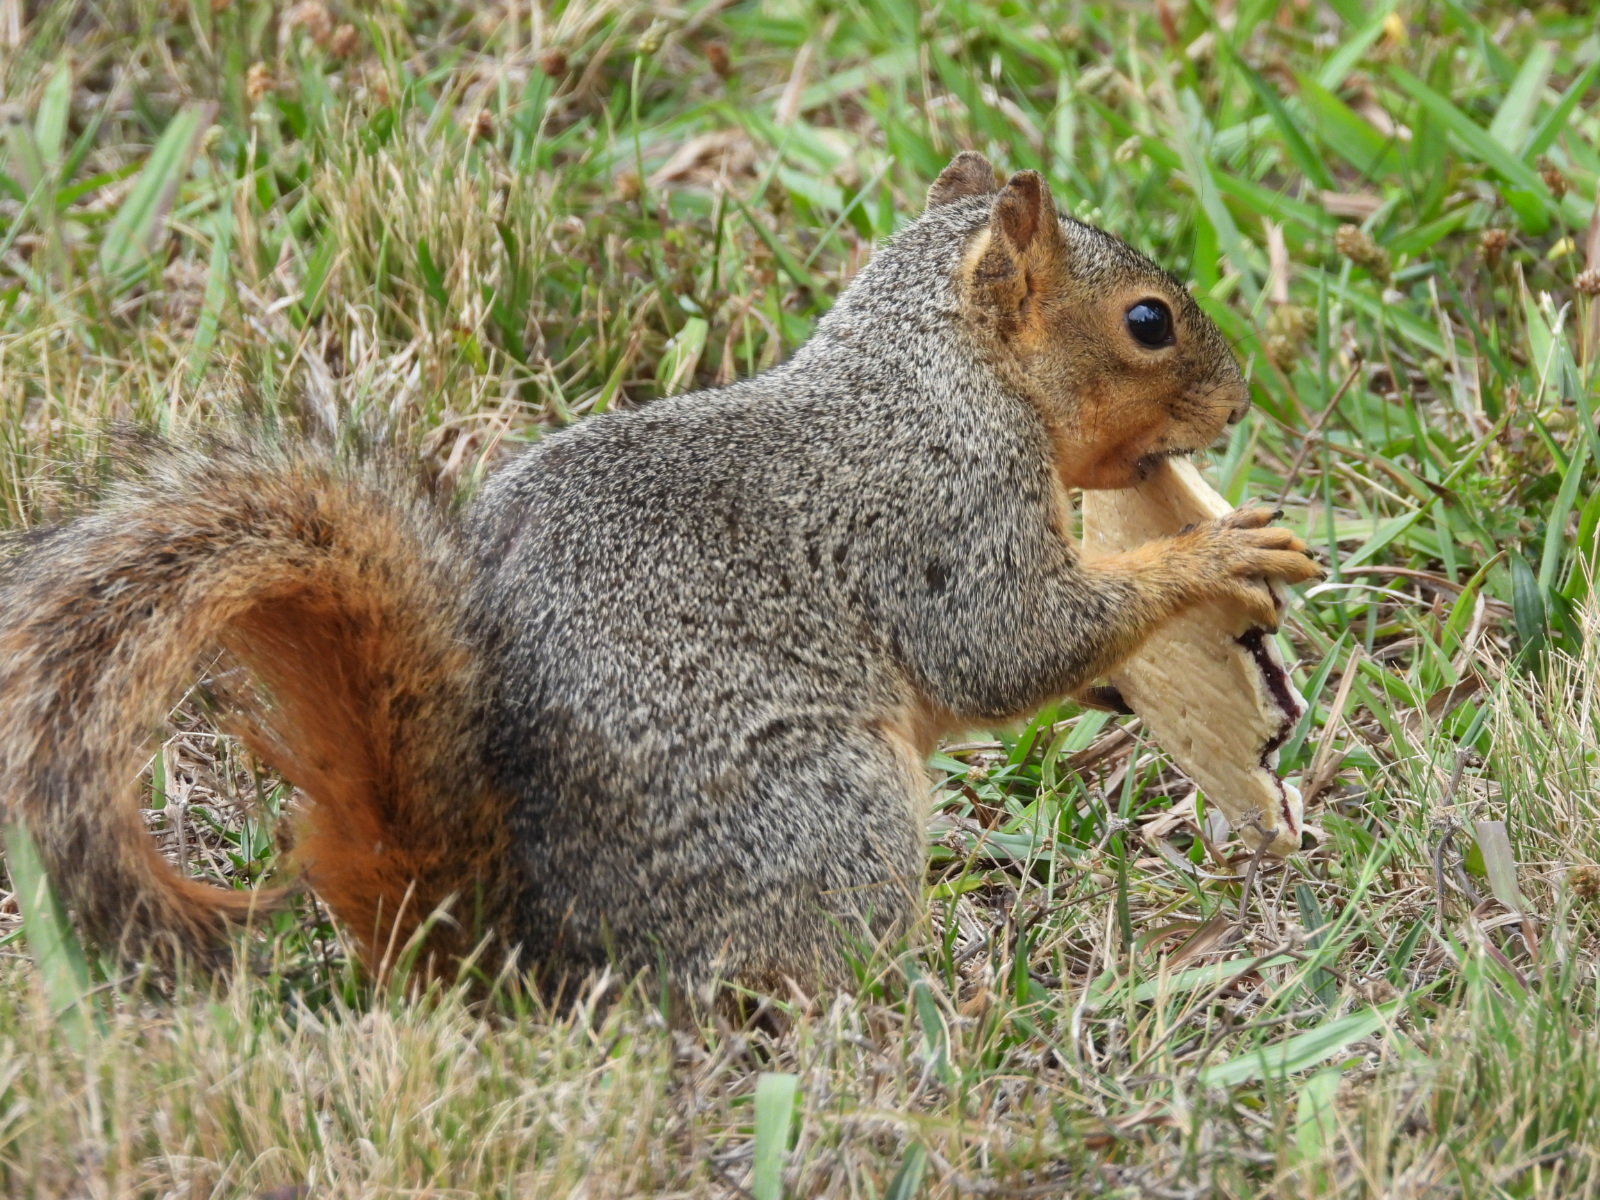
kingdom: Animalia
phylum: Chordata
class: Mammalia
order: Rodentia
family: Sciuridae
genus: Sciurus
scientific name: Sciurus niger
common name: Fox squirrel
